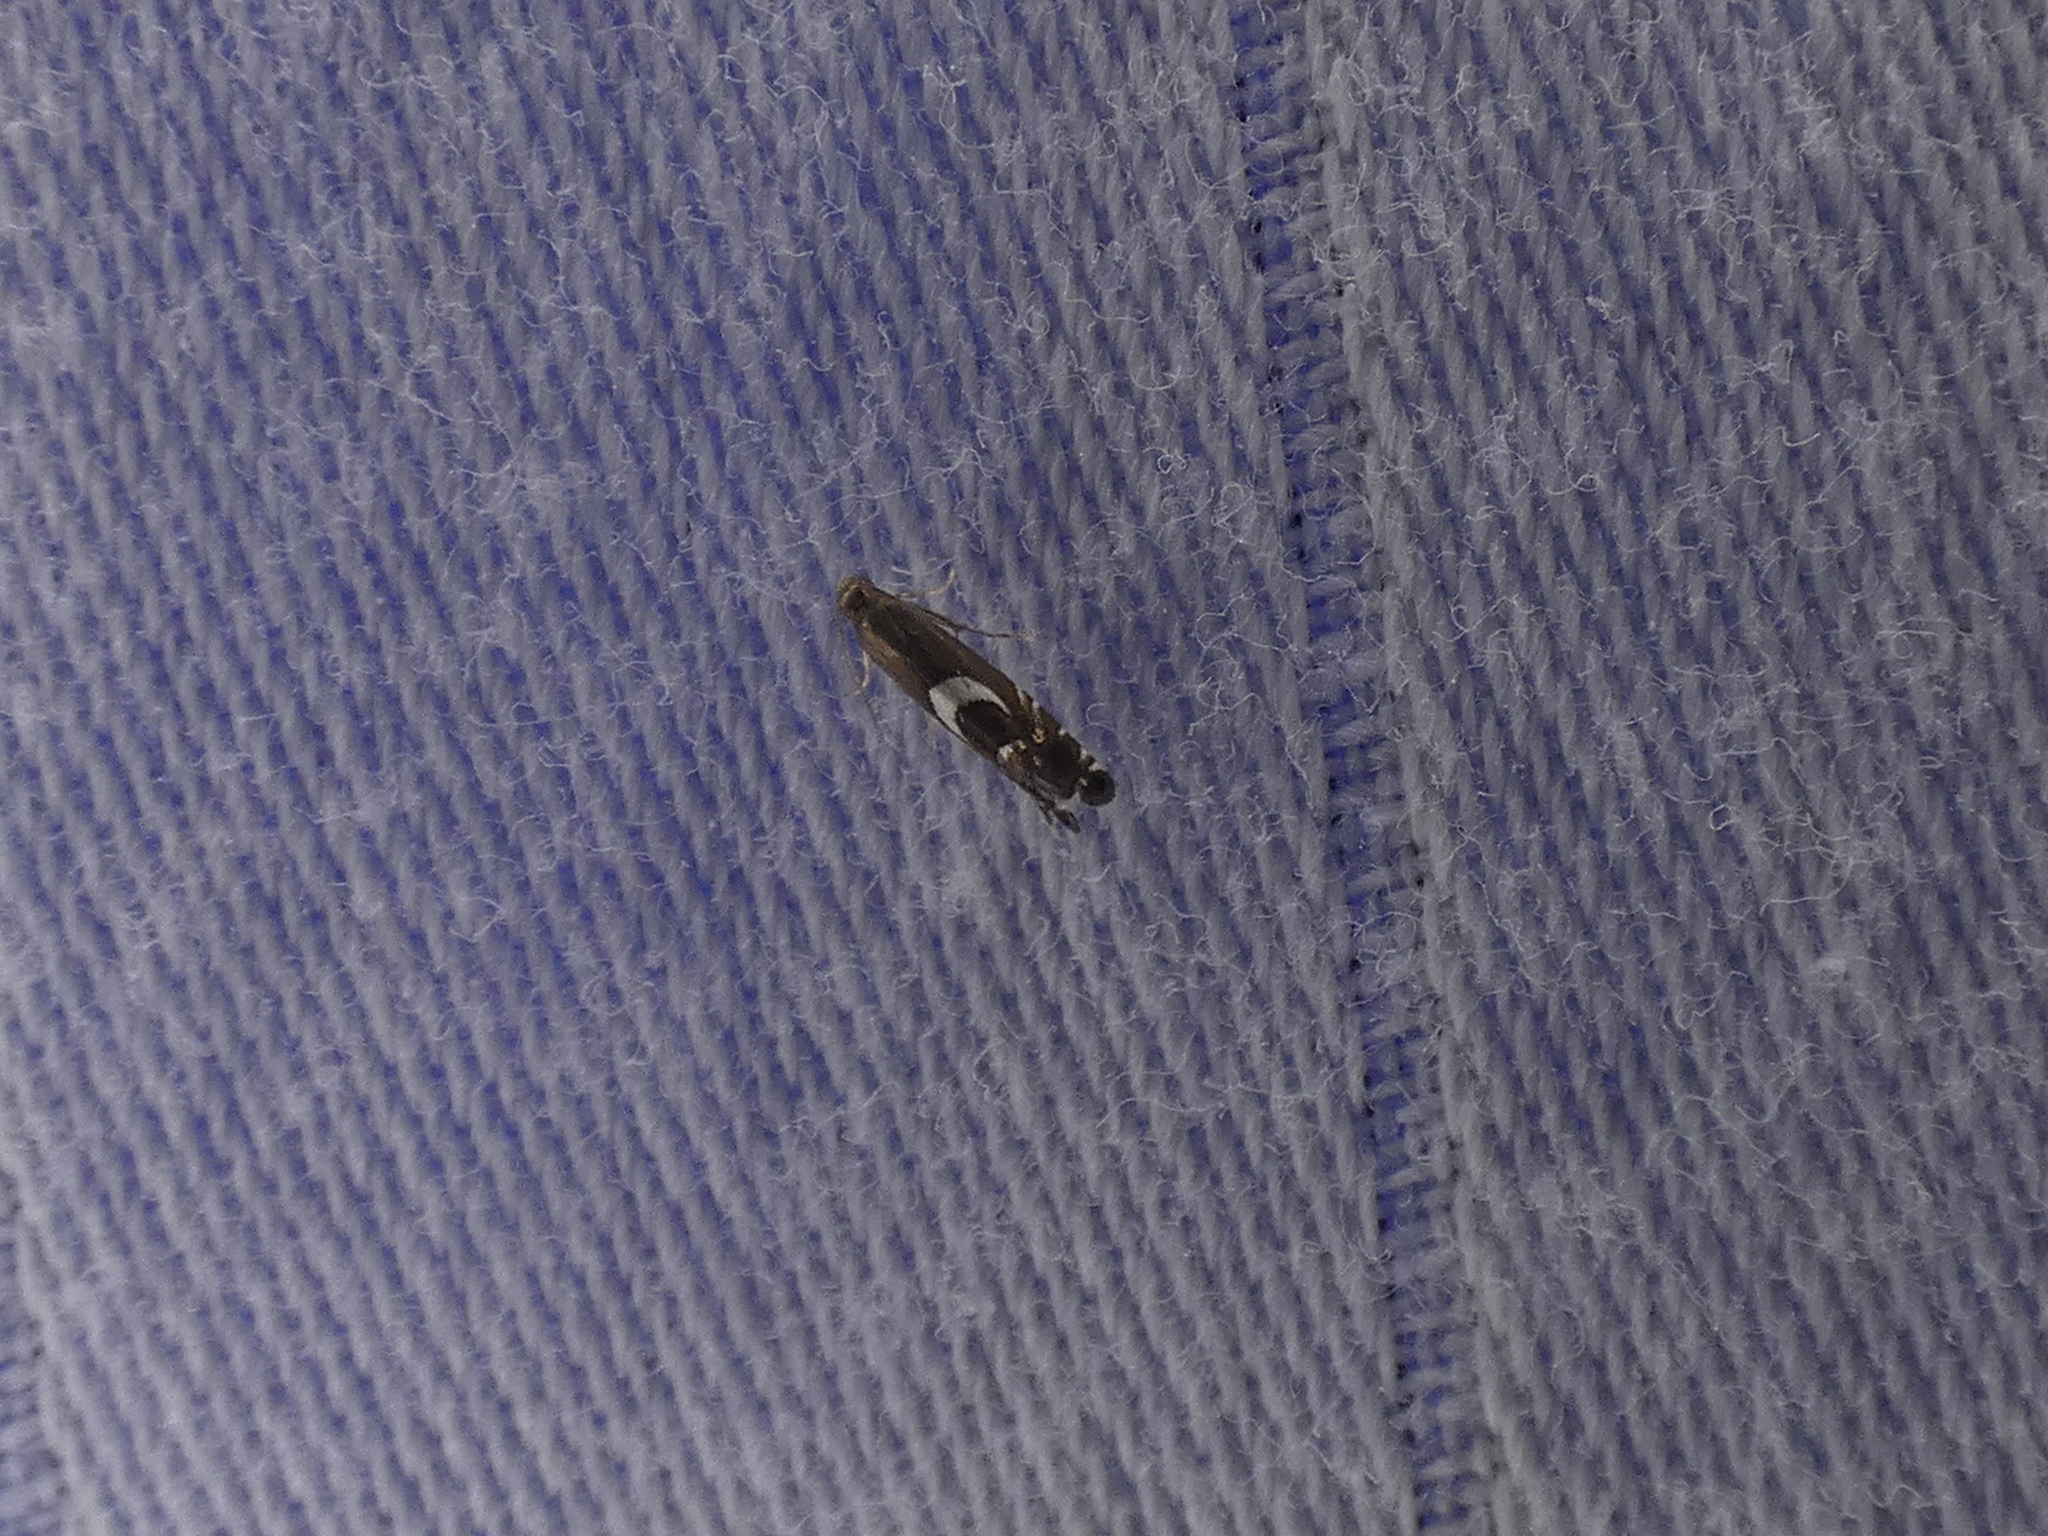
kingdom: Animalia
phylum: Arthropoda
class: Insecta
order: Lepidoptera
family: Glyphipterigidae
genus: Glyphipterix
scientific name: Glyphipterix Diploschizia impigritella
